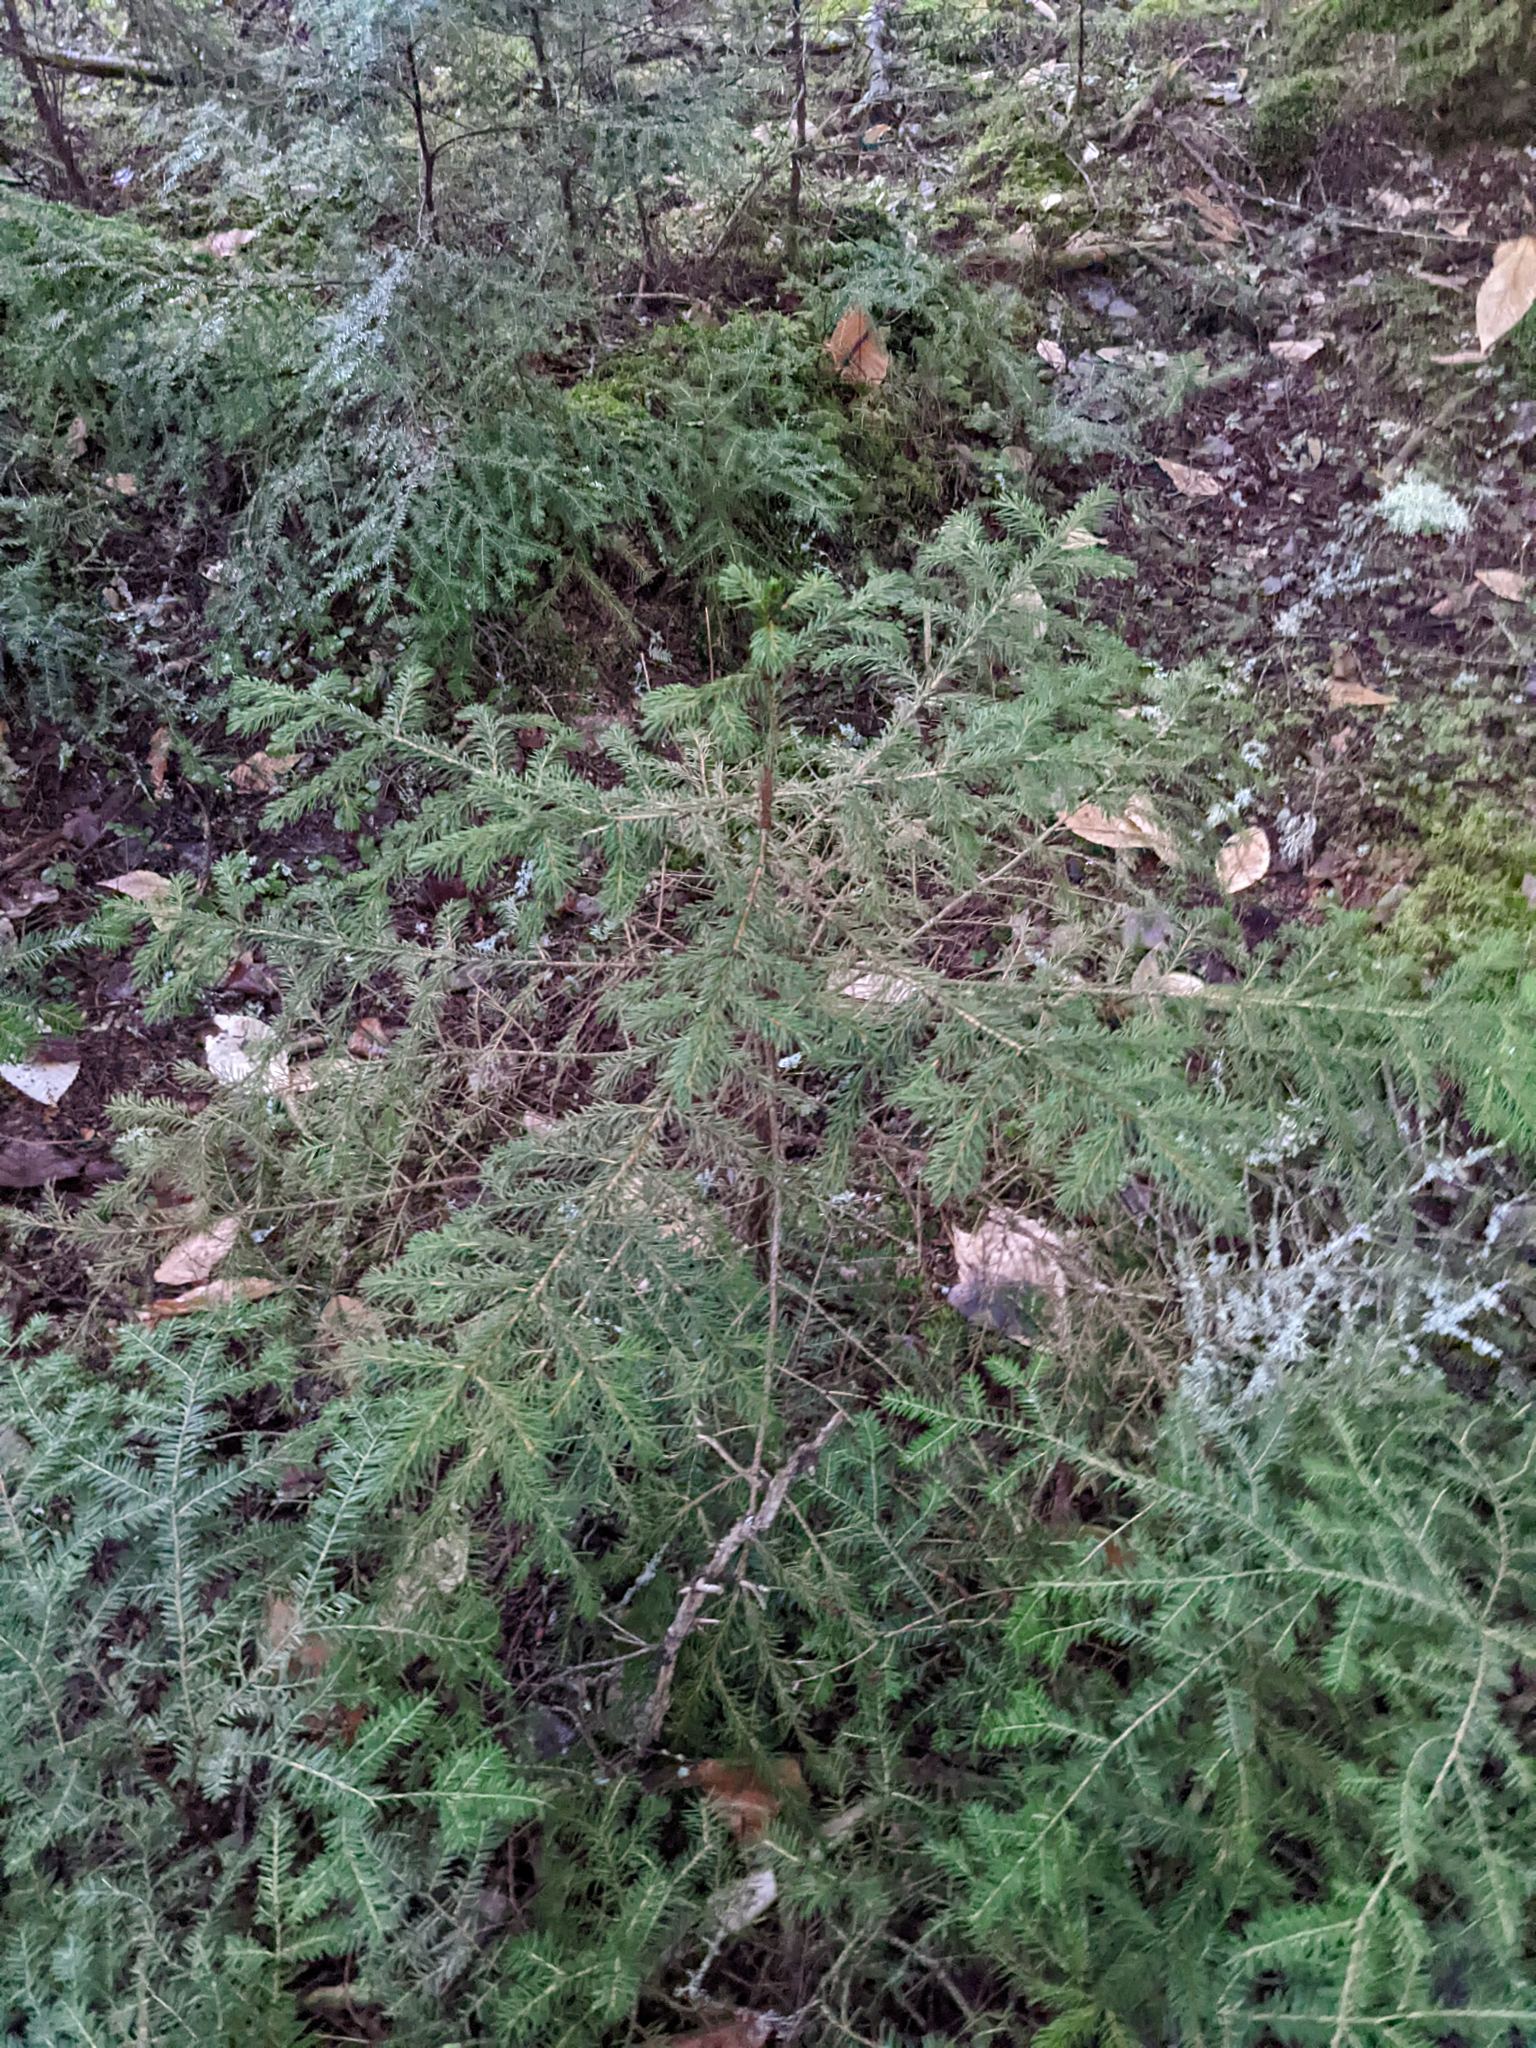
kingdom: Plantae
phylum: Tracheophyta
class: Pinopsida
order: Pinales
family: Pinaceae
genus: Picea
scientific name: Picea rubens
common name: Red spruce
